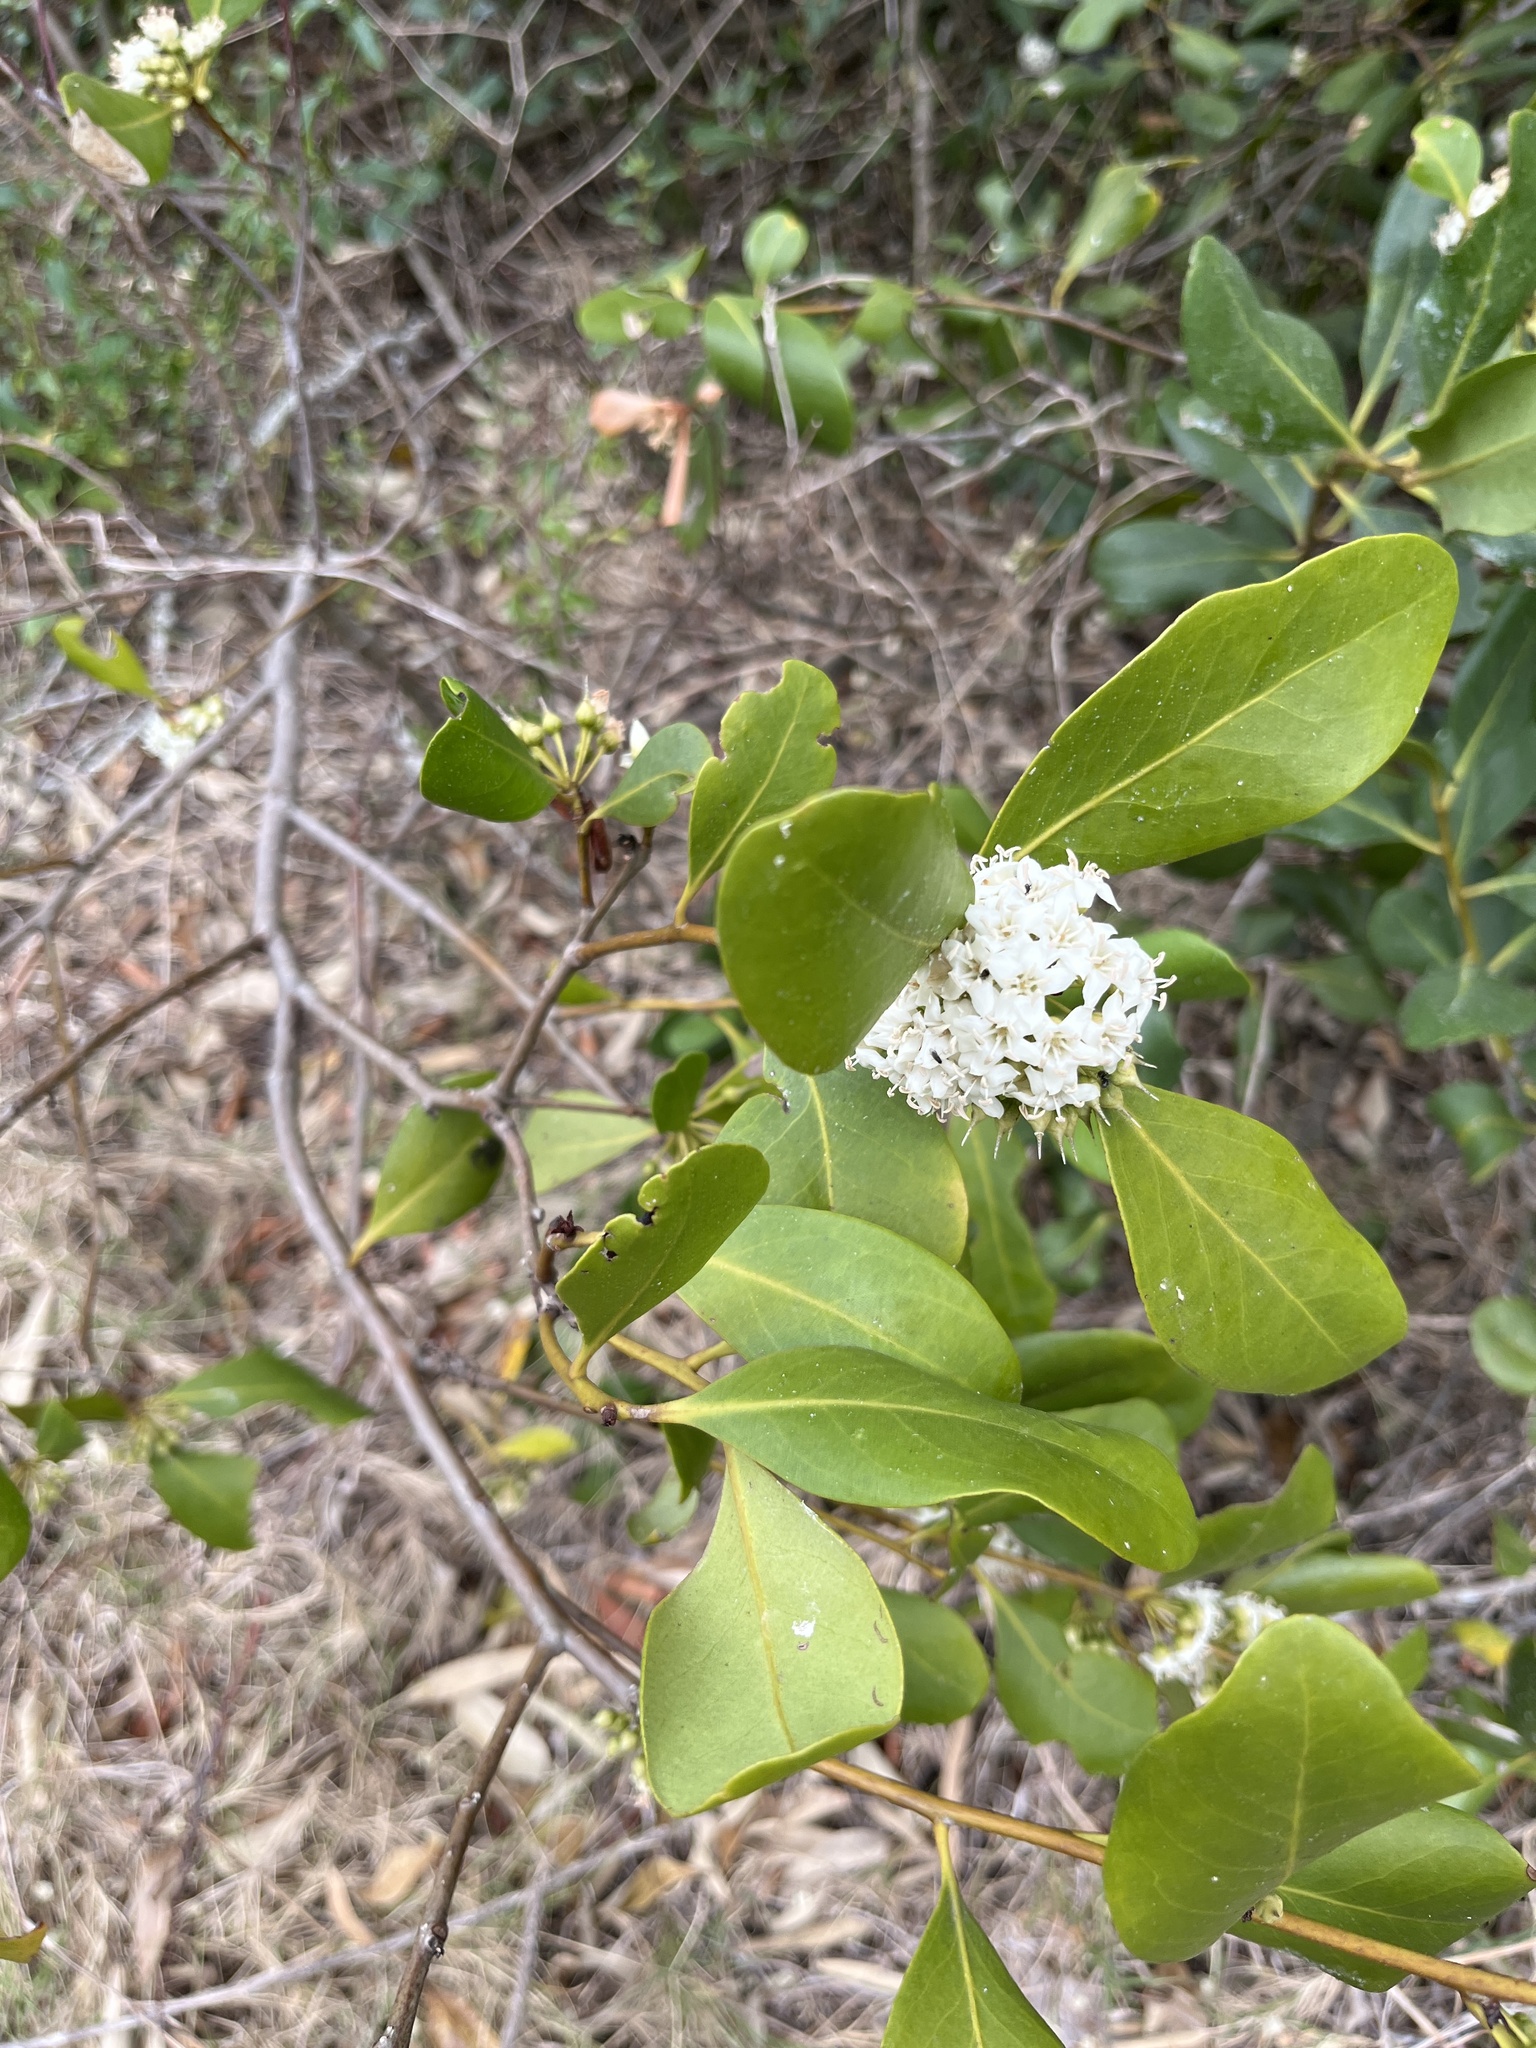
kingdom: Plantae
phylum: Tracheophyta
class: Magnoliopsida
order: Ericales
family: Primulaceae
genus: Aegiceras
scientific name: Aegiceras corniculatum
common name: River mangrove
